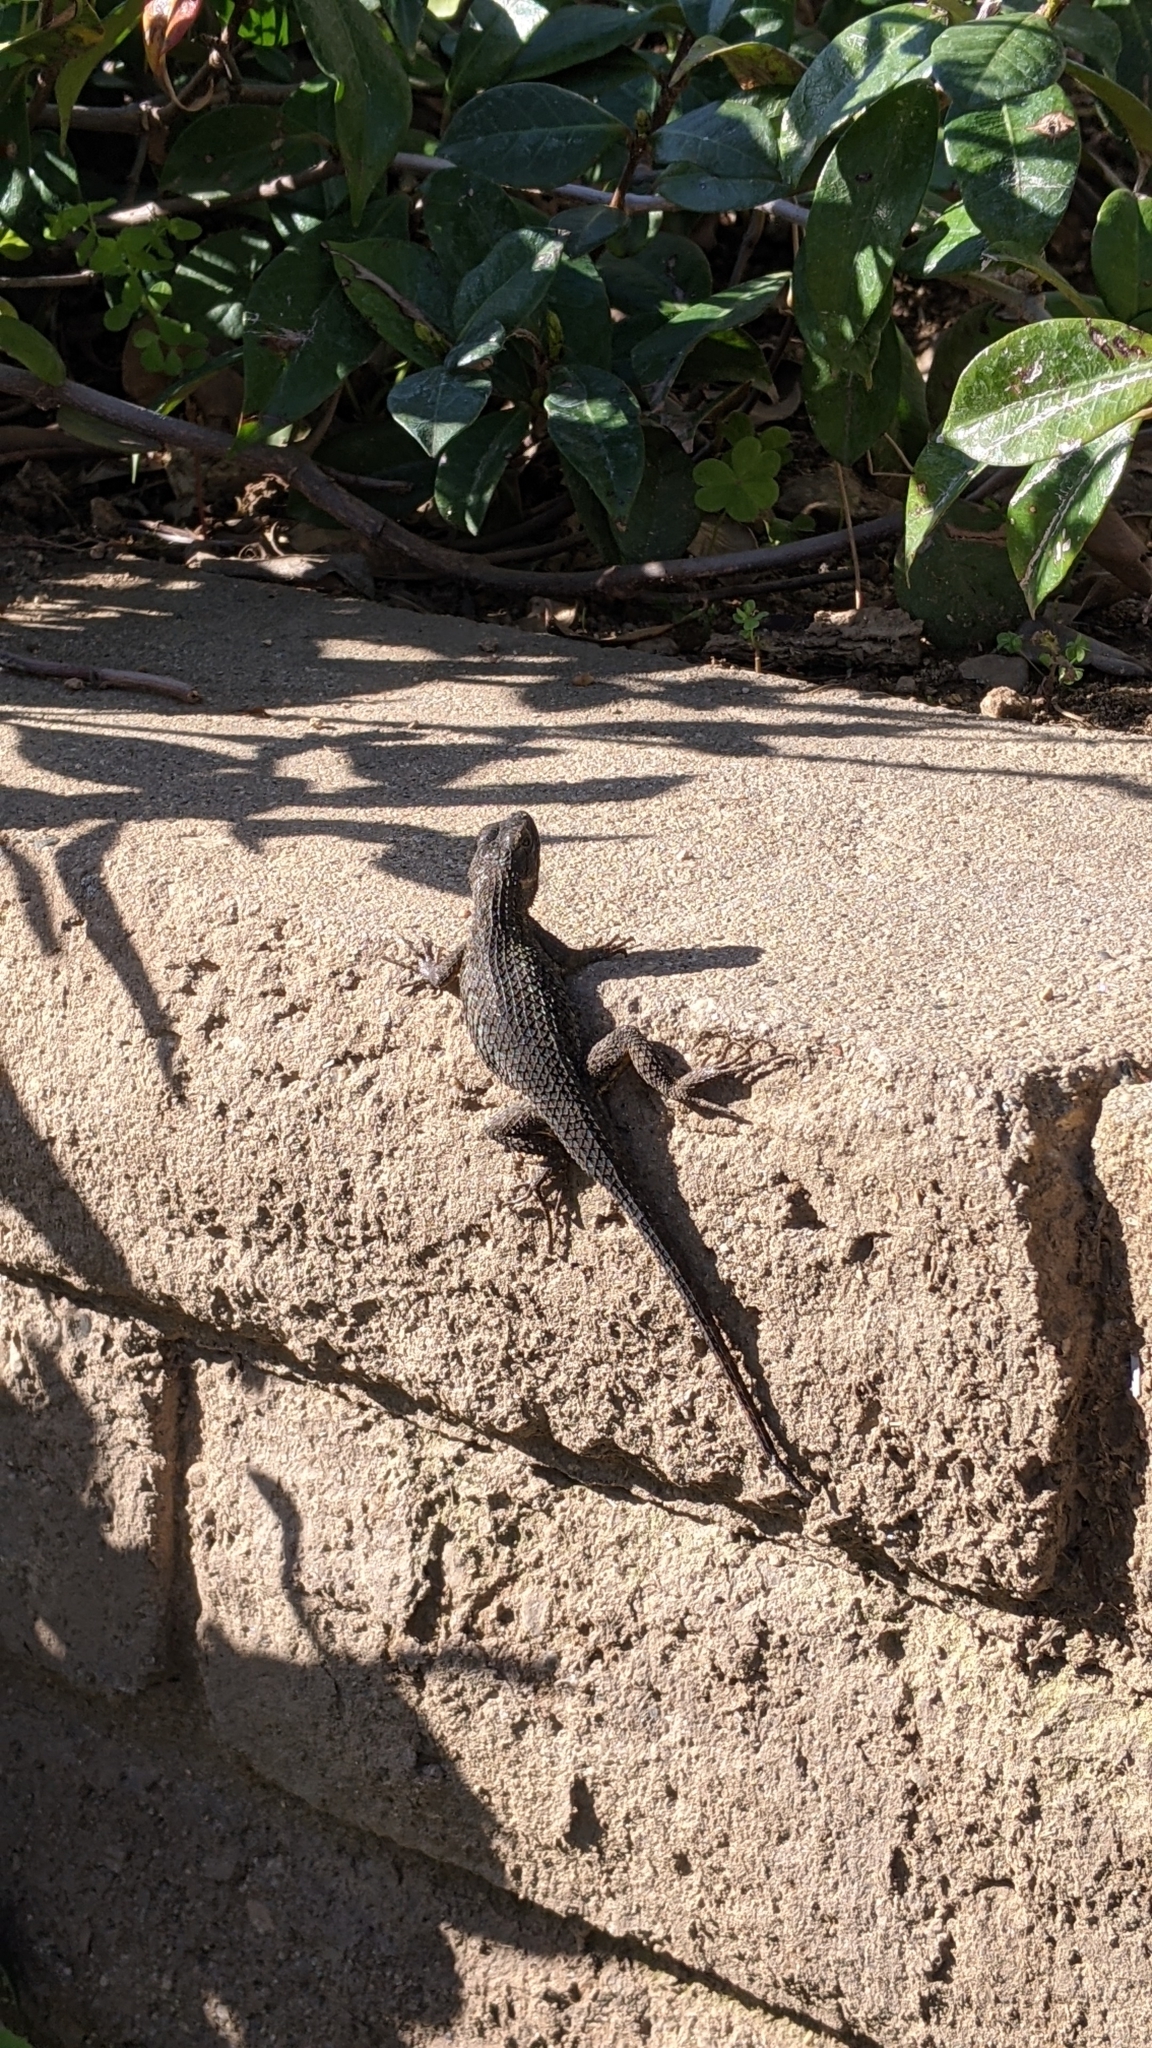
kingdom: Animalia
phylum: Chordata
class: Squamata
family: Phrynosomatidae
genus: Sceloporus
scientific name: Sceloporus occidentalis
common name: Western fence lizard
